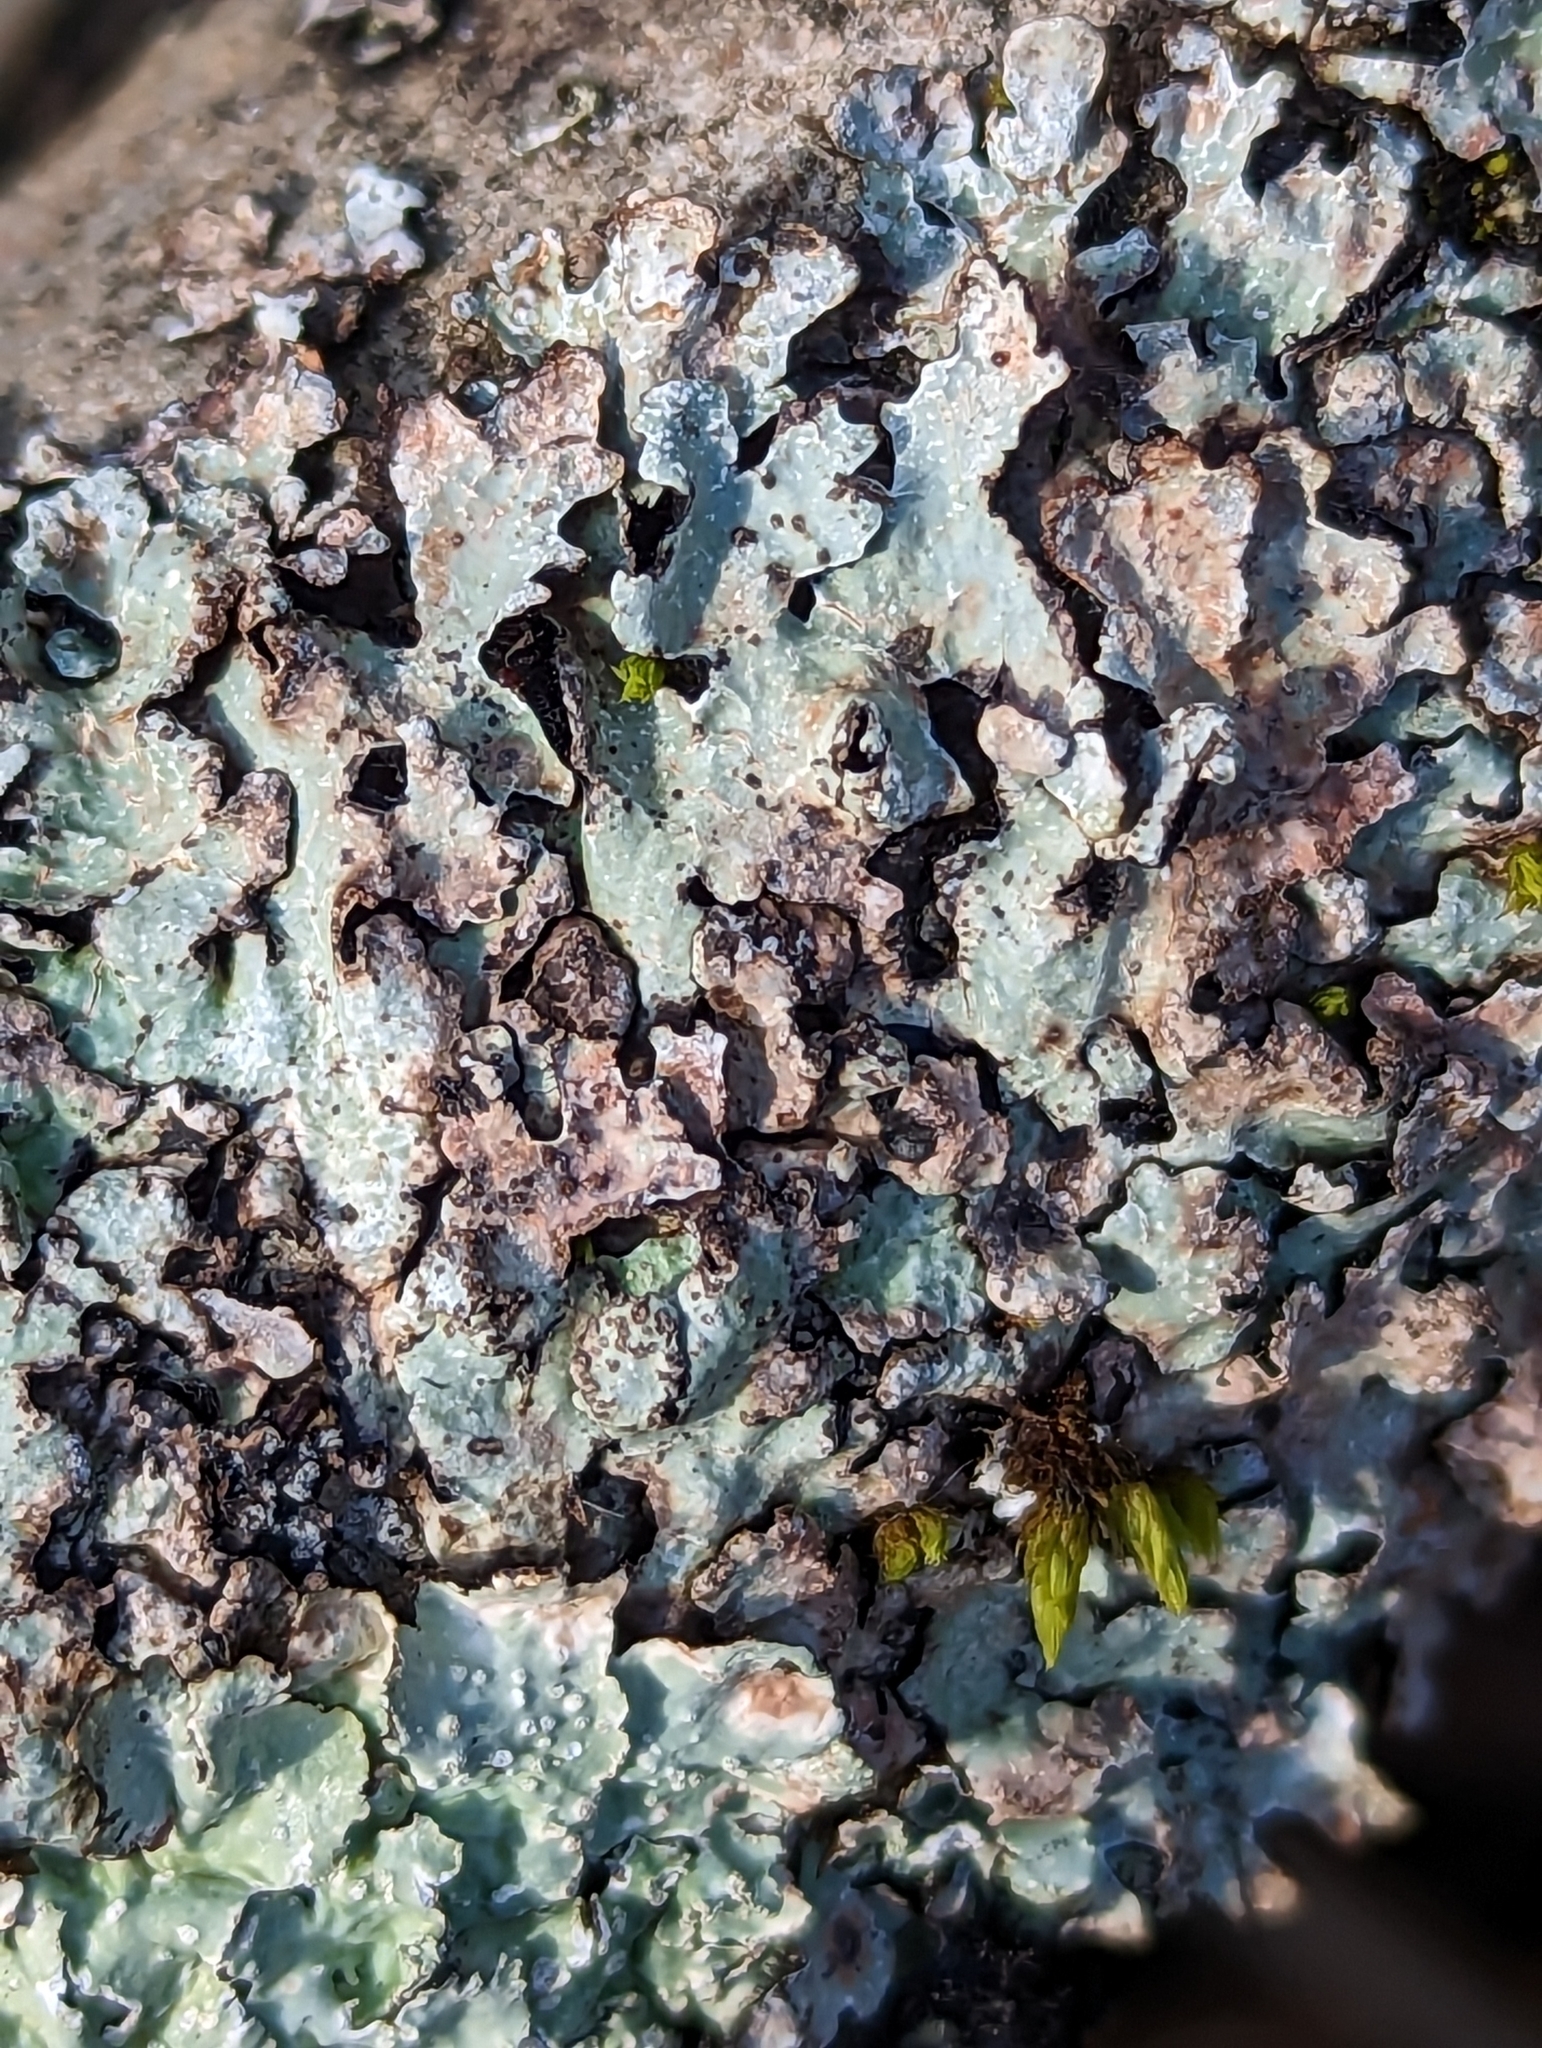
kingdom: Fungi
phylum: Ascomycota
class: Lecanoromycetes
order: Lecanorales
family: Parmeliaceae
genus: Parmelia
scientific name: Parmelia sulcata
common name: Netted shield lichen
